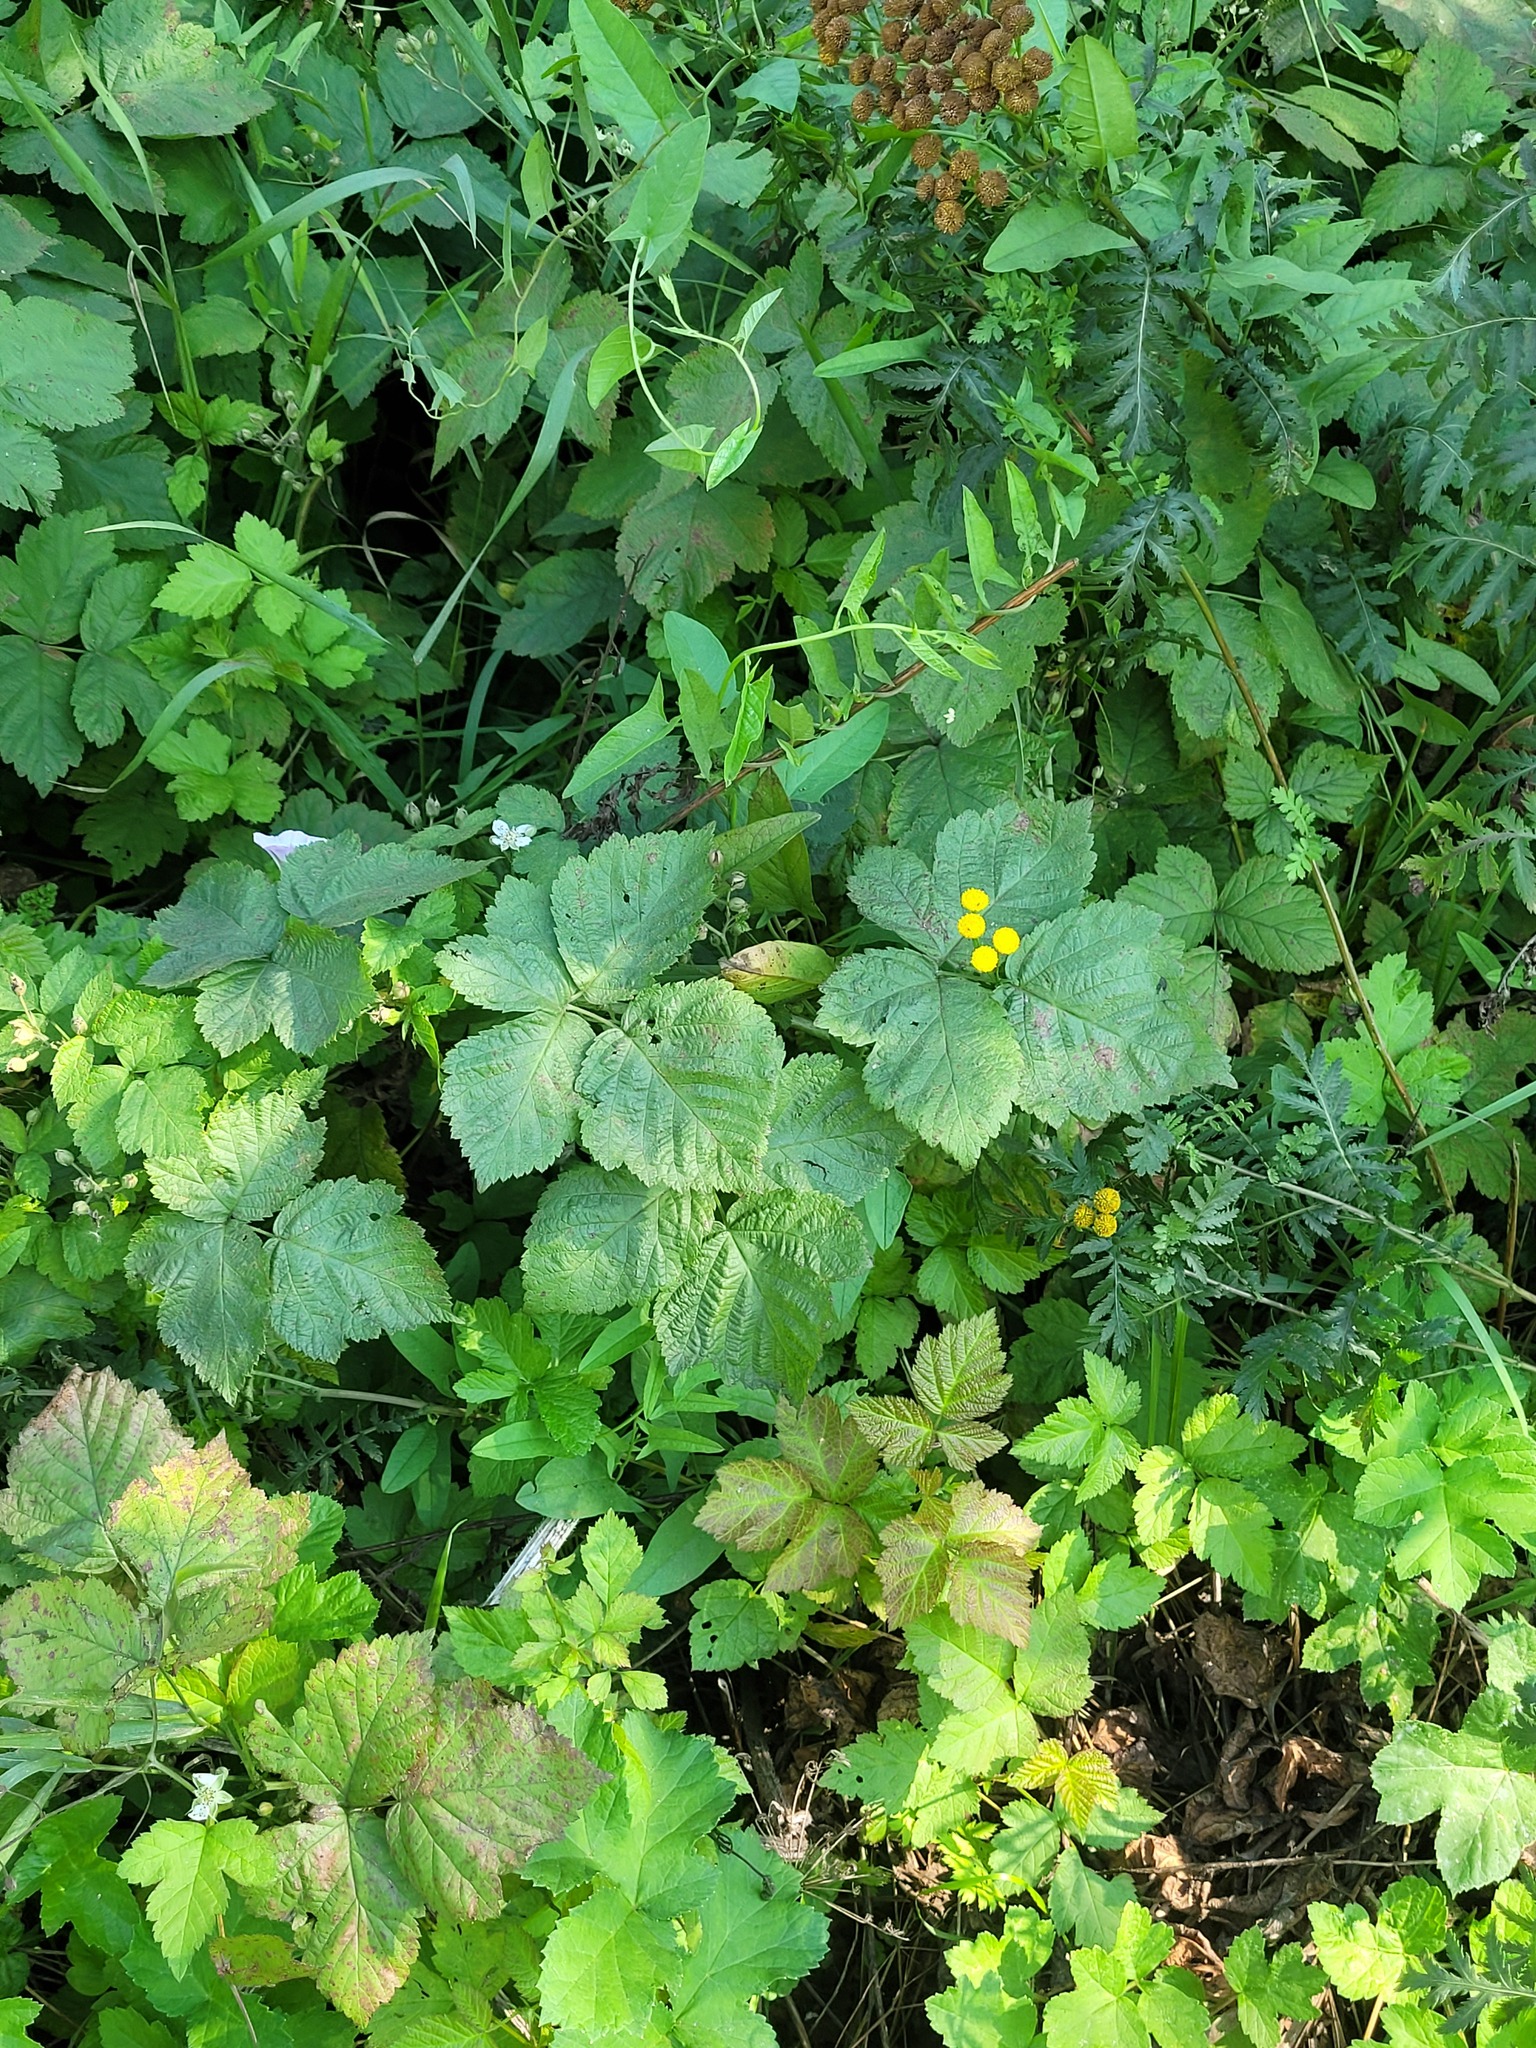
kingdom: Plantae
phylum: Tracheophyta
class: Magnoliopsida
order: Rosales
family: Rosaceae
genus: Rubus
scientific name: Rubus caesius
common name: Dewberry
